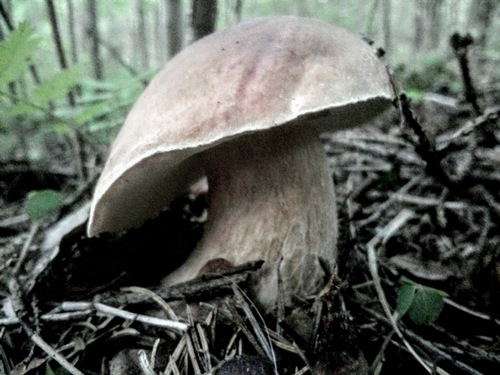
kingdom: Fungi
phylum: Basidiomycota
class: Agaricomycetes
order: Boletales
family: Boletaceae
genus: Boletus
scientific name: Boletus edulis
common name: Cep
